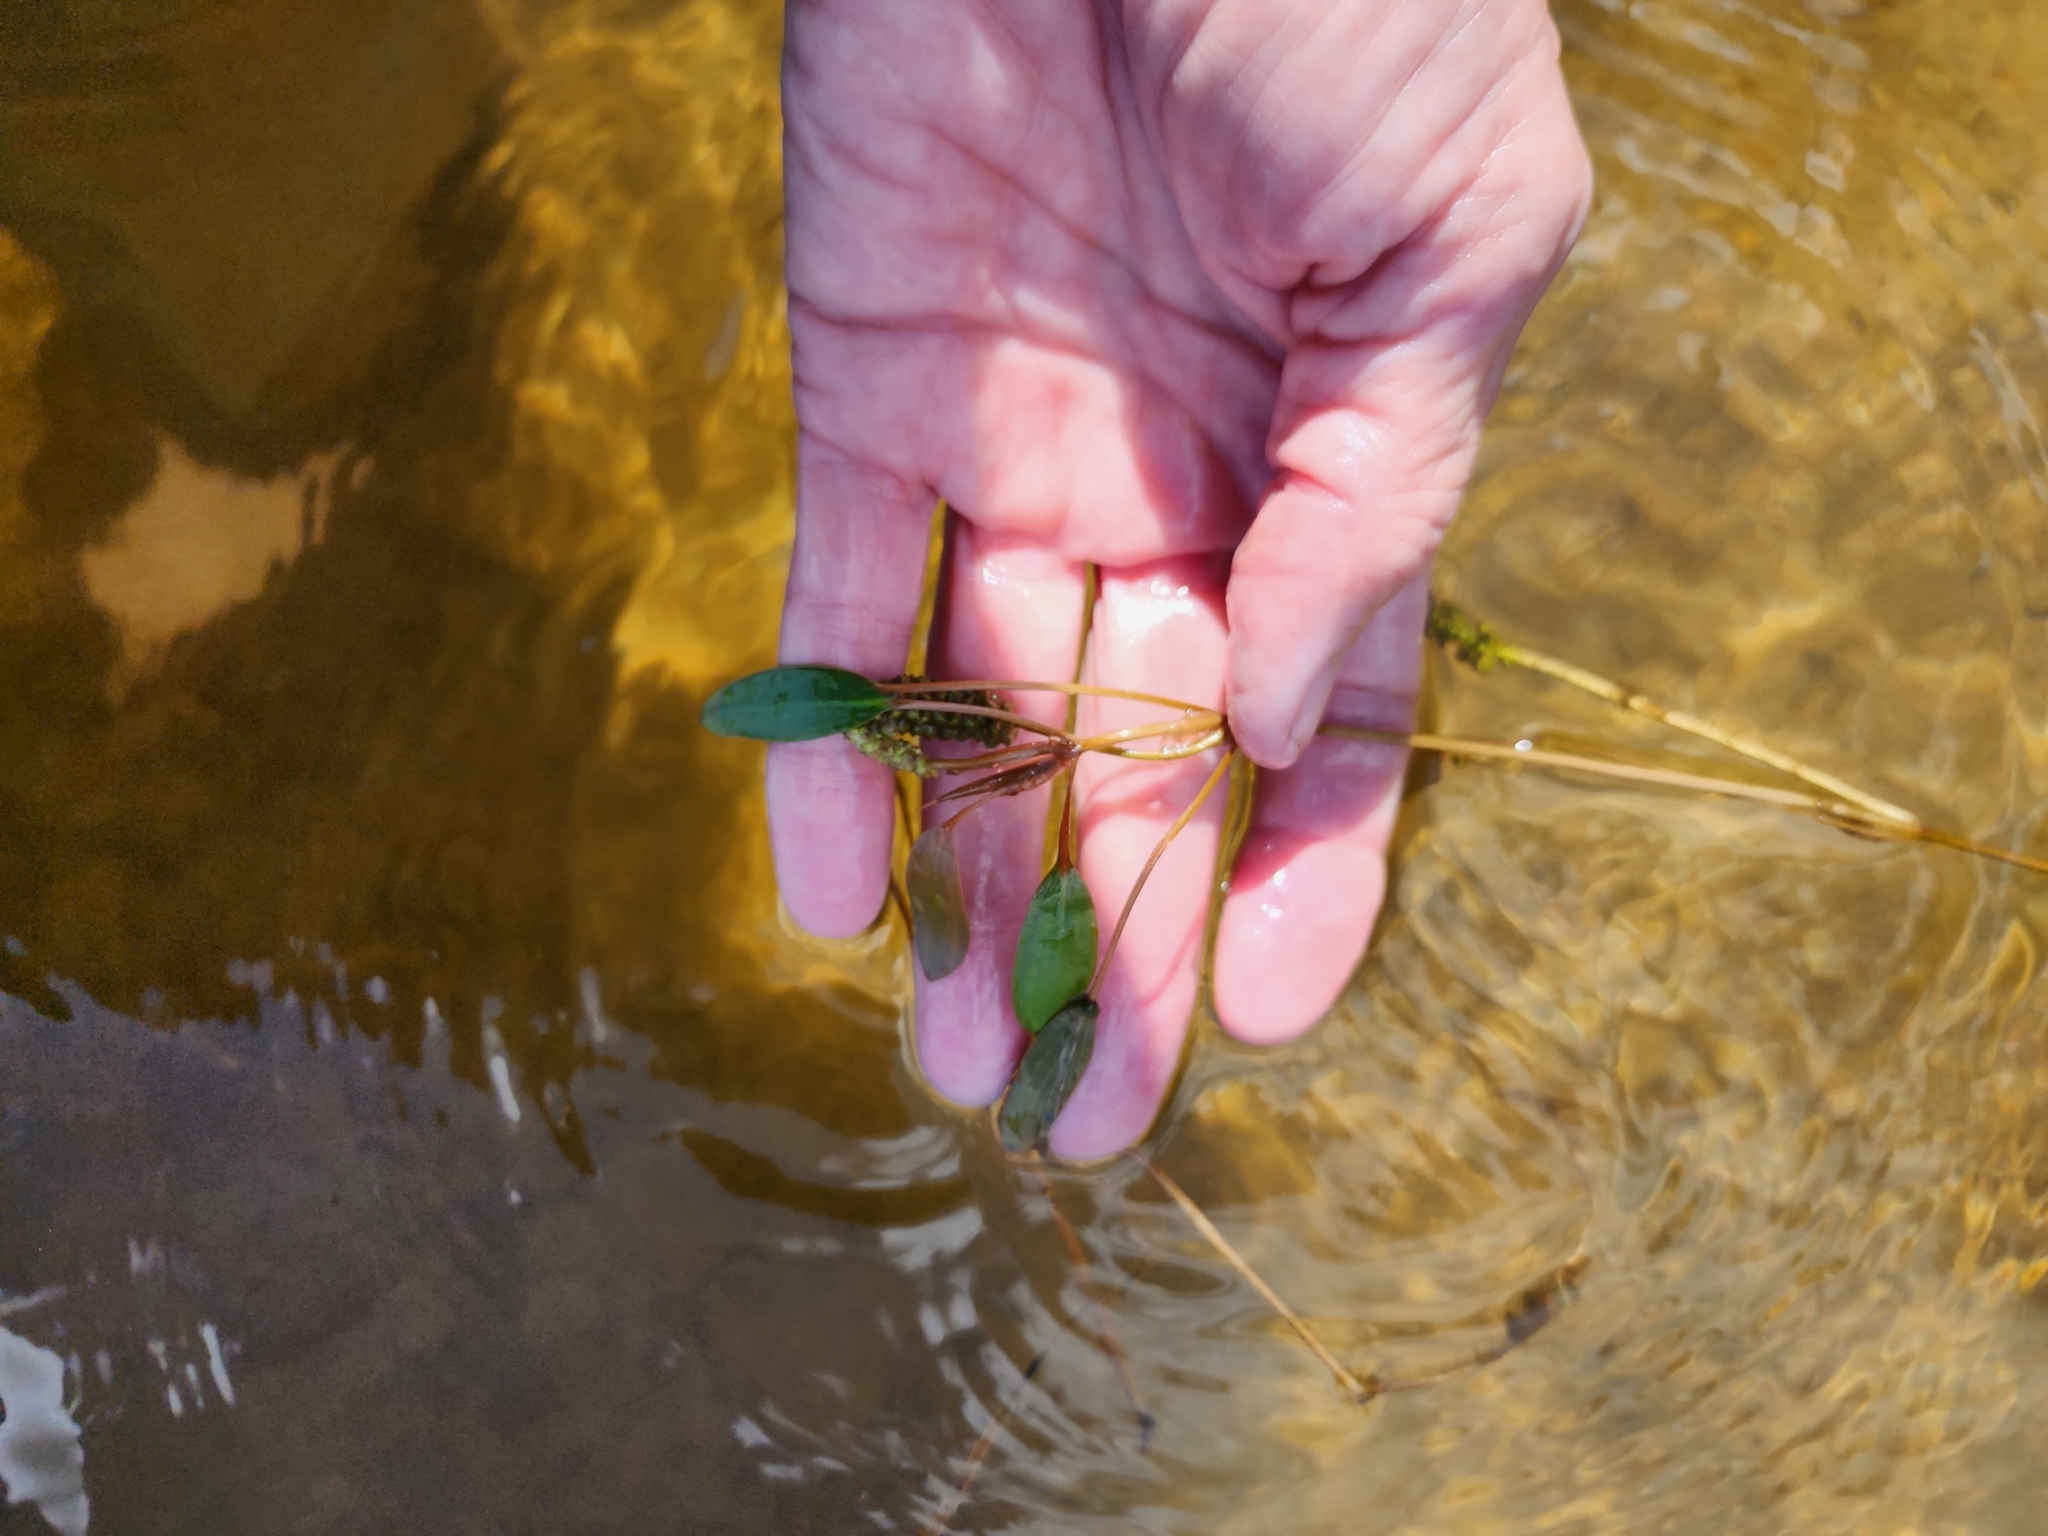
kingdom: Plantae
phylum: Tracheophyta
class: Liliopsida
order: Alismatales
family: Potamogetonaceae
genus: Potamogeton
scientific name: Potamogeton epihydrus
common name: American pondweed
